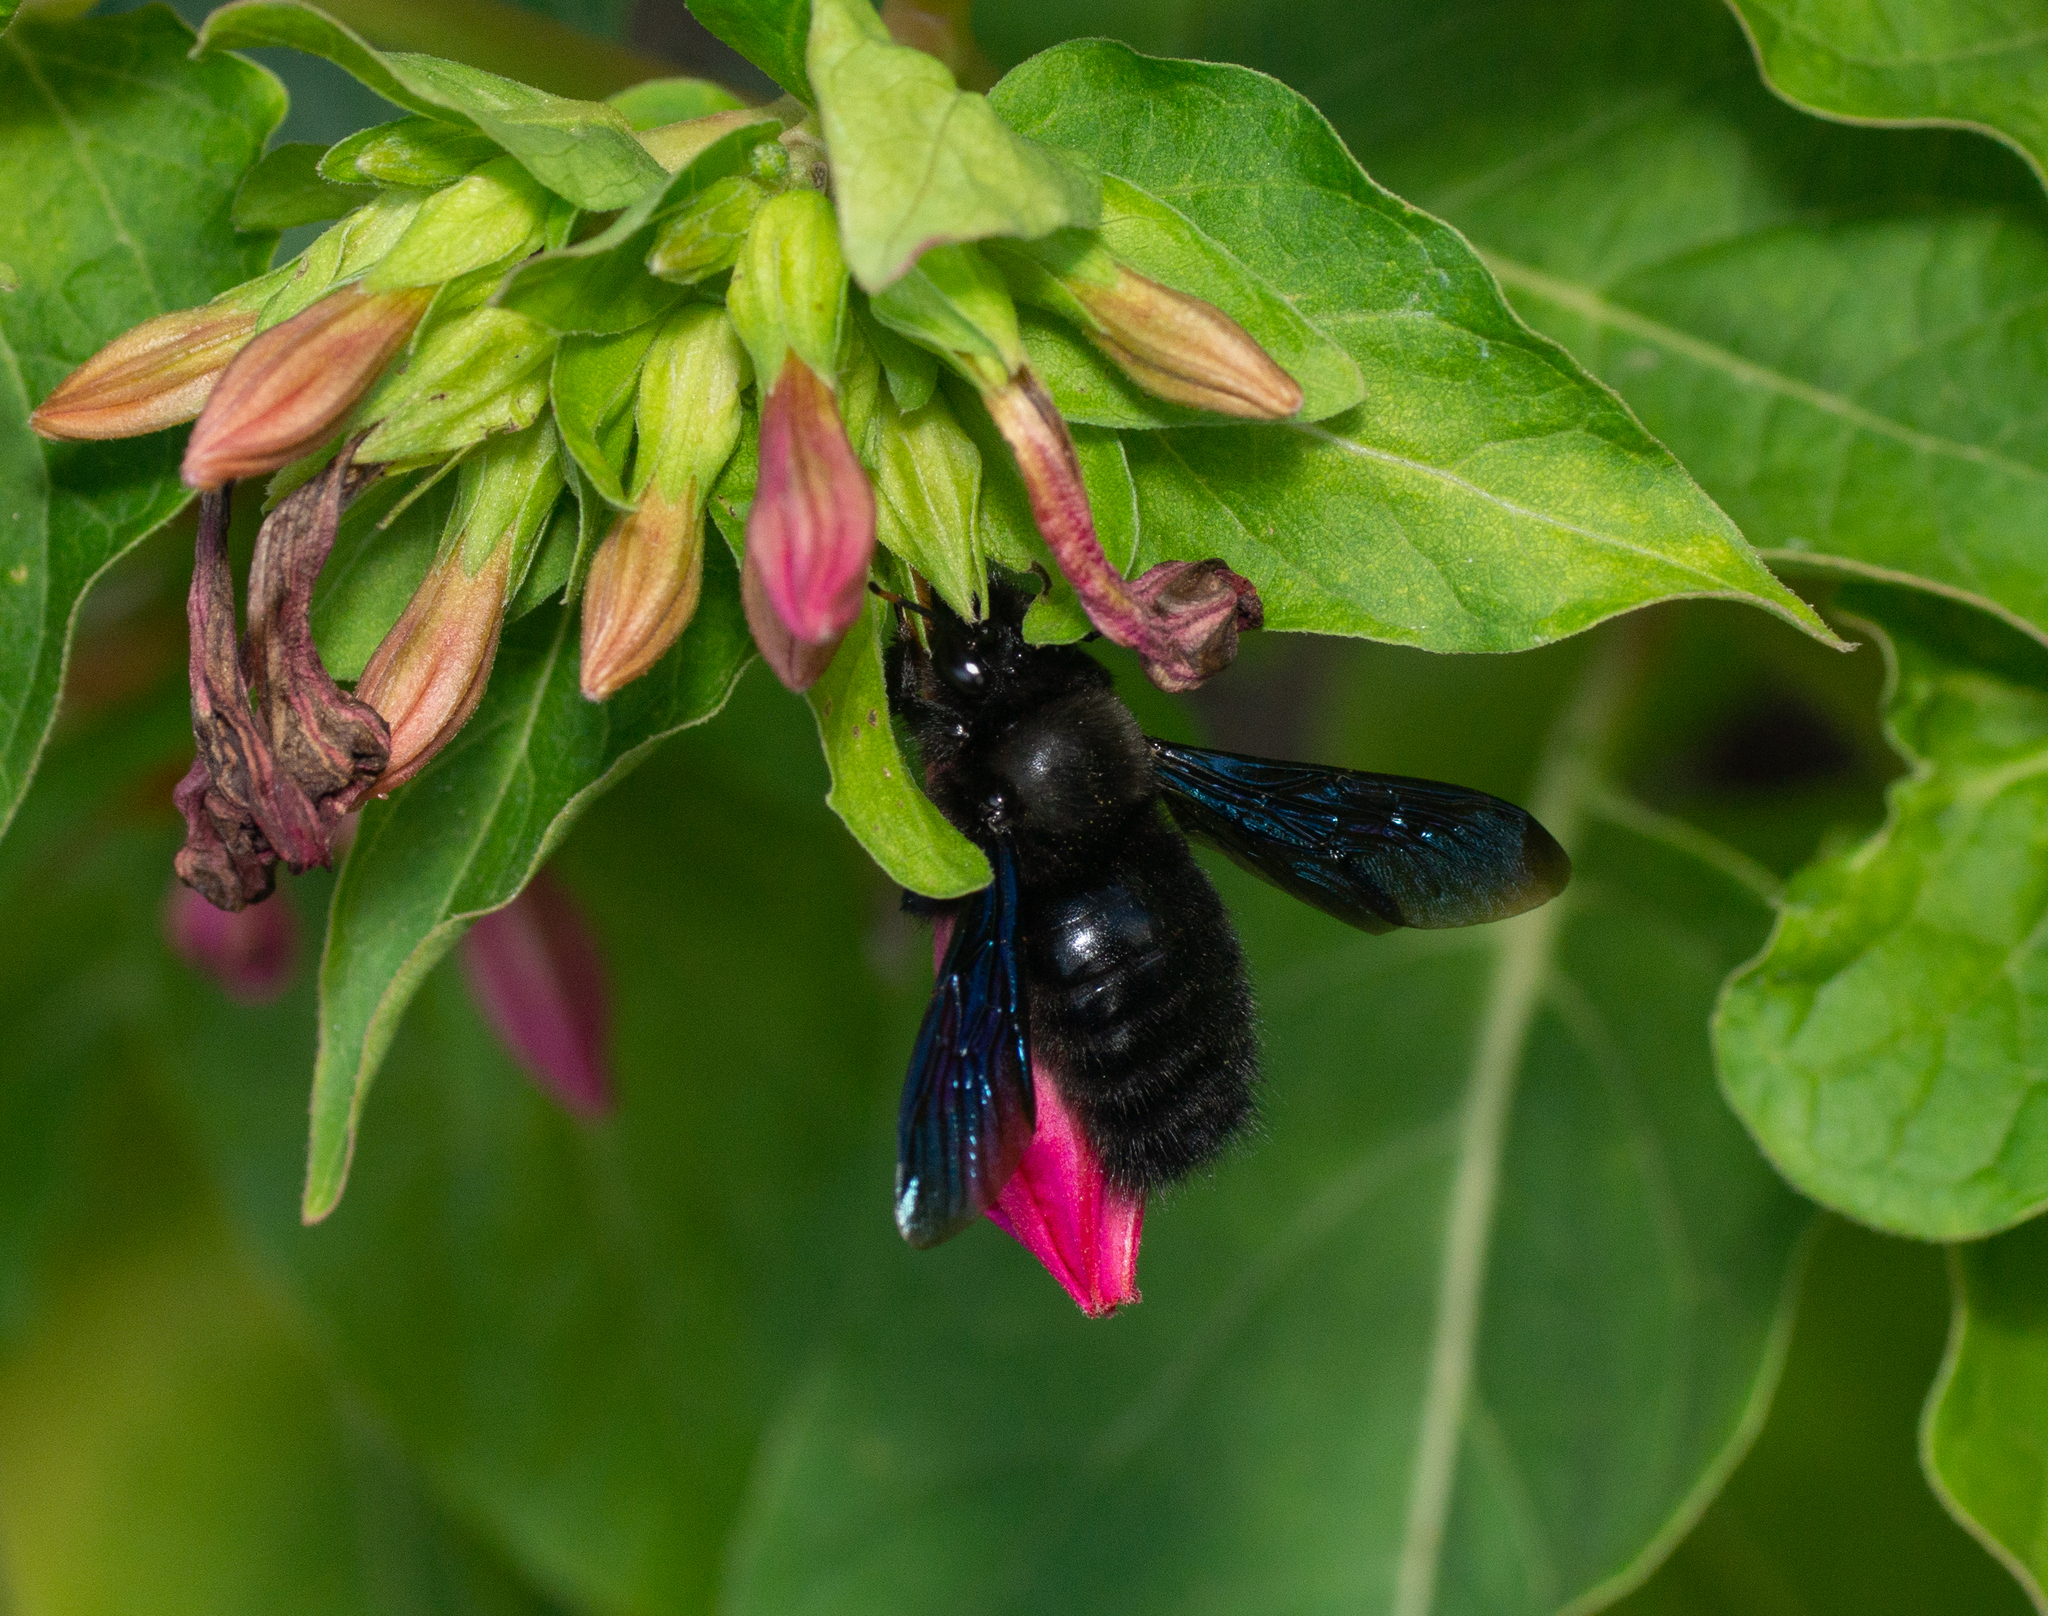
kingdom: Animalia
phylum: Arthropoda
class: Insecta
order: Hymenoptera
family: Apidae
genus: Xylocopa
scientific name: Xylocopa violacea
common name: Violet carpenter bee
